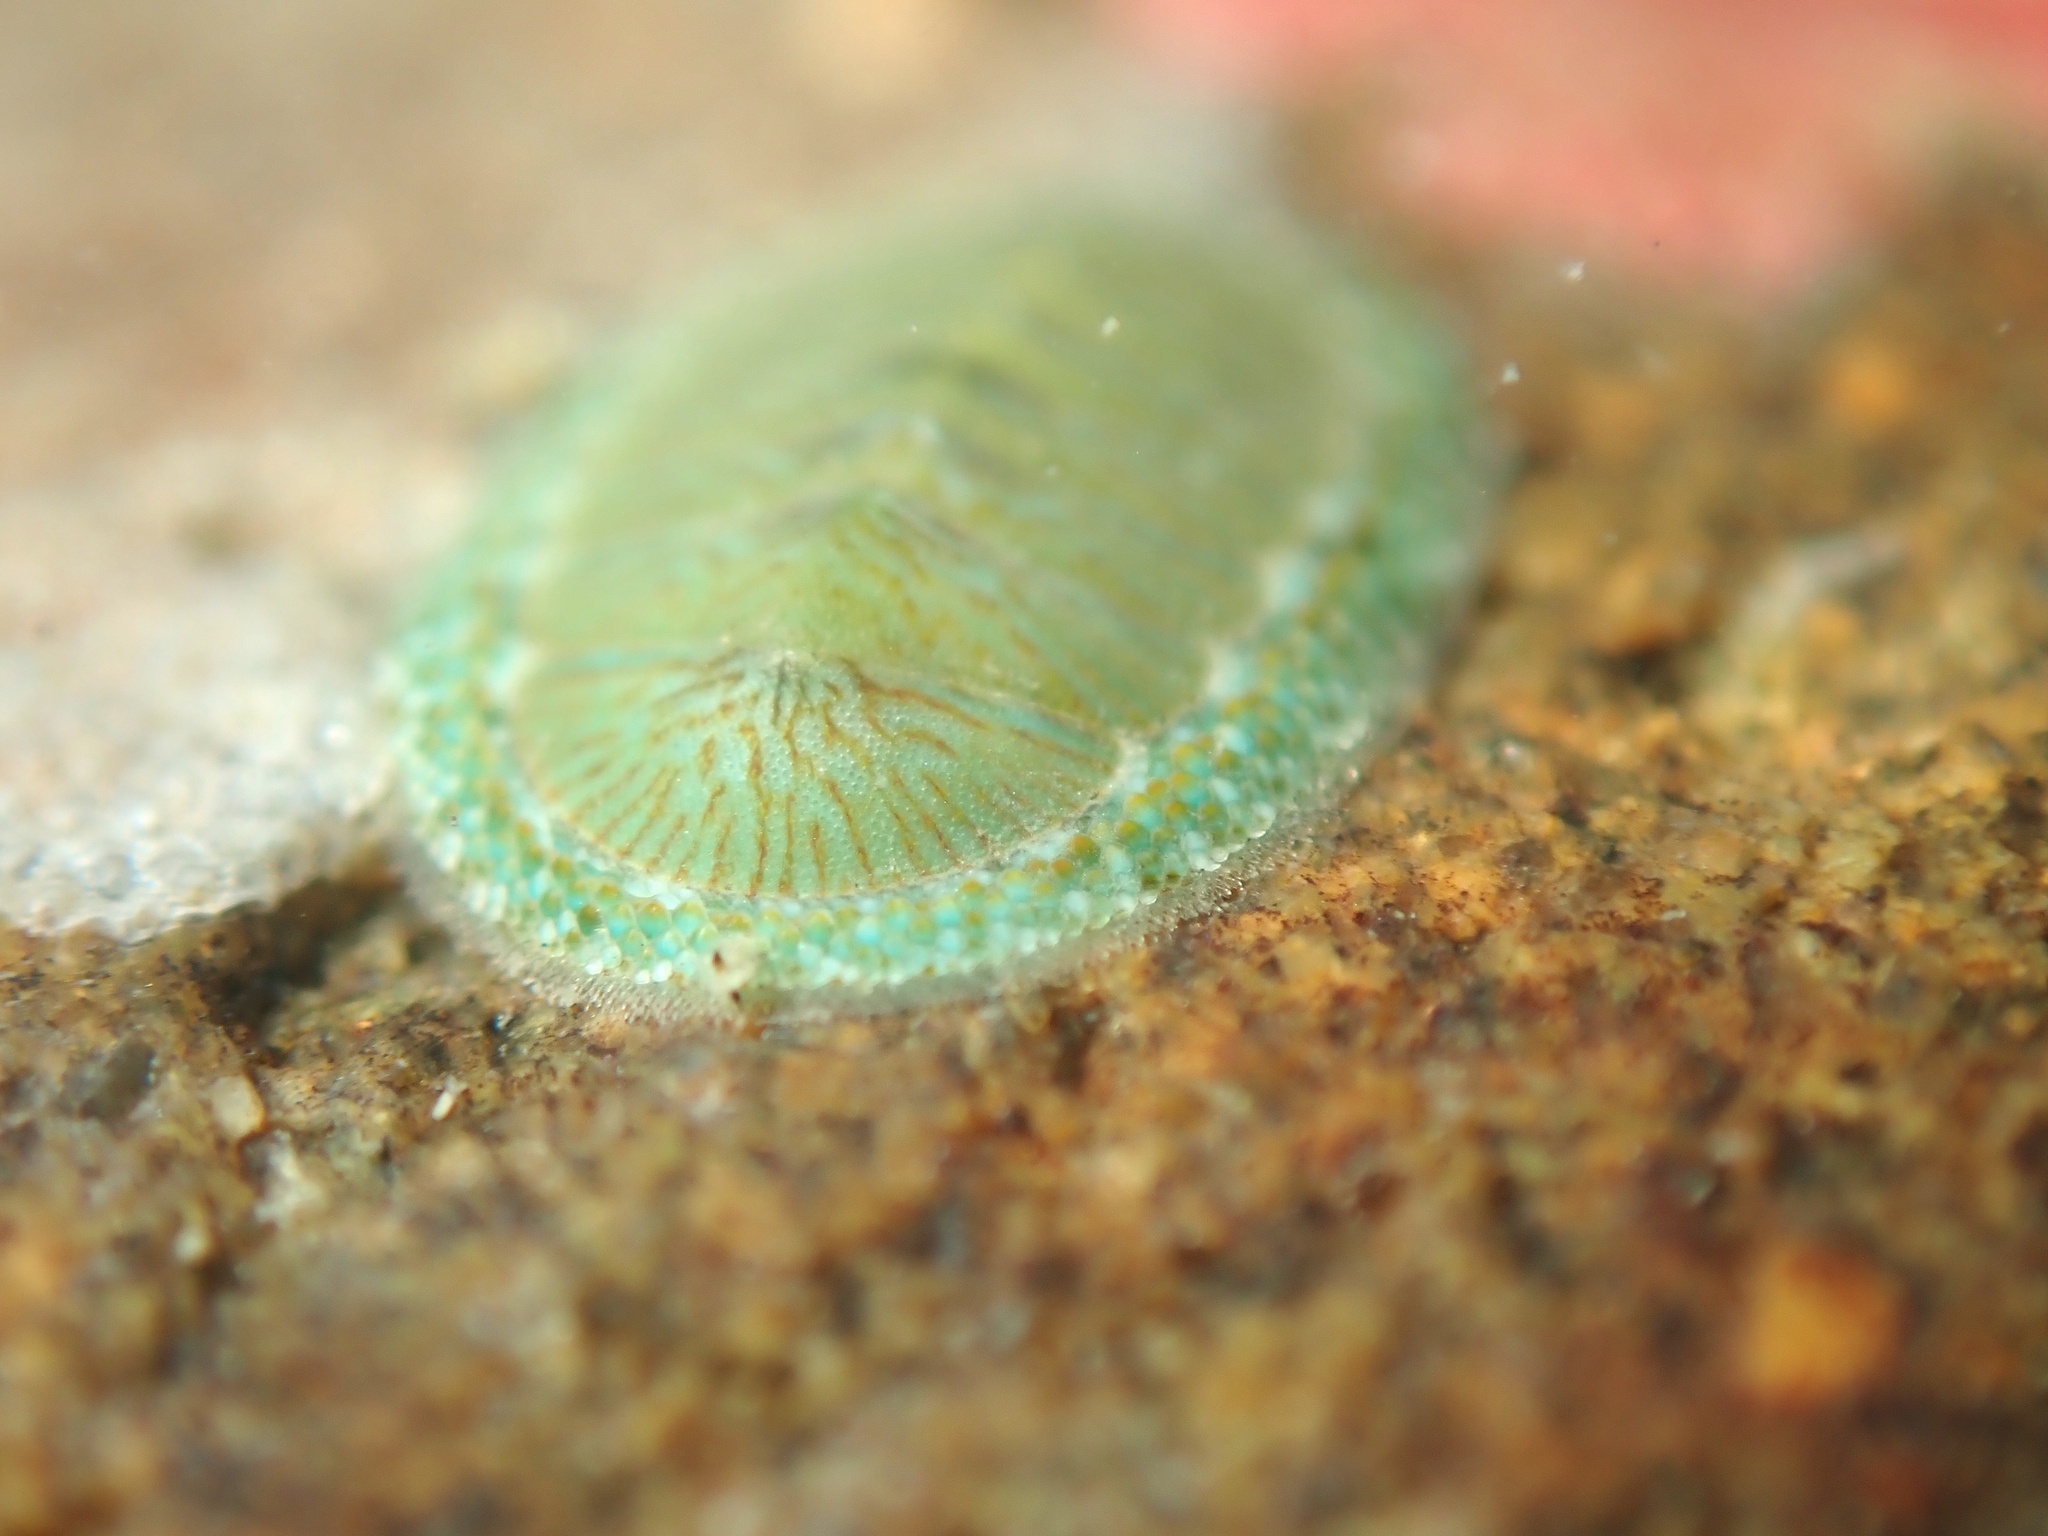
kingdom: Animalia
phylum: Mollusca
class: Polyplacophora
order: Chitonida
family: Chitonidae
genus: Chiton
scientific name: Chiton glaucus
